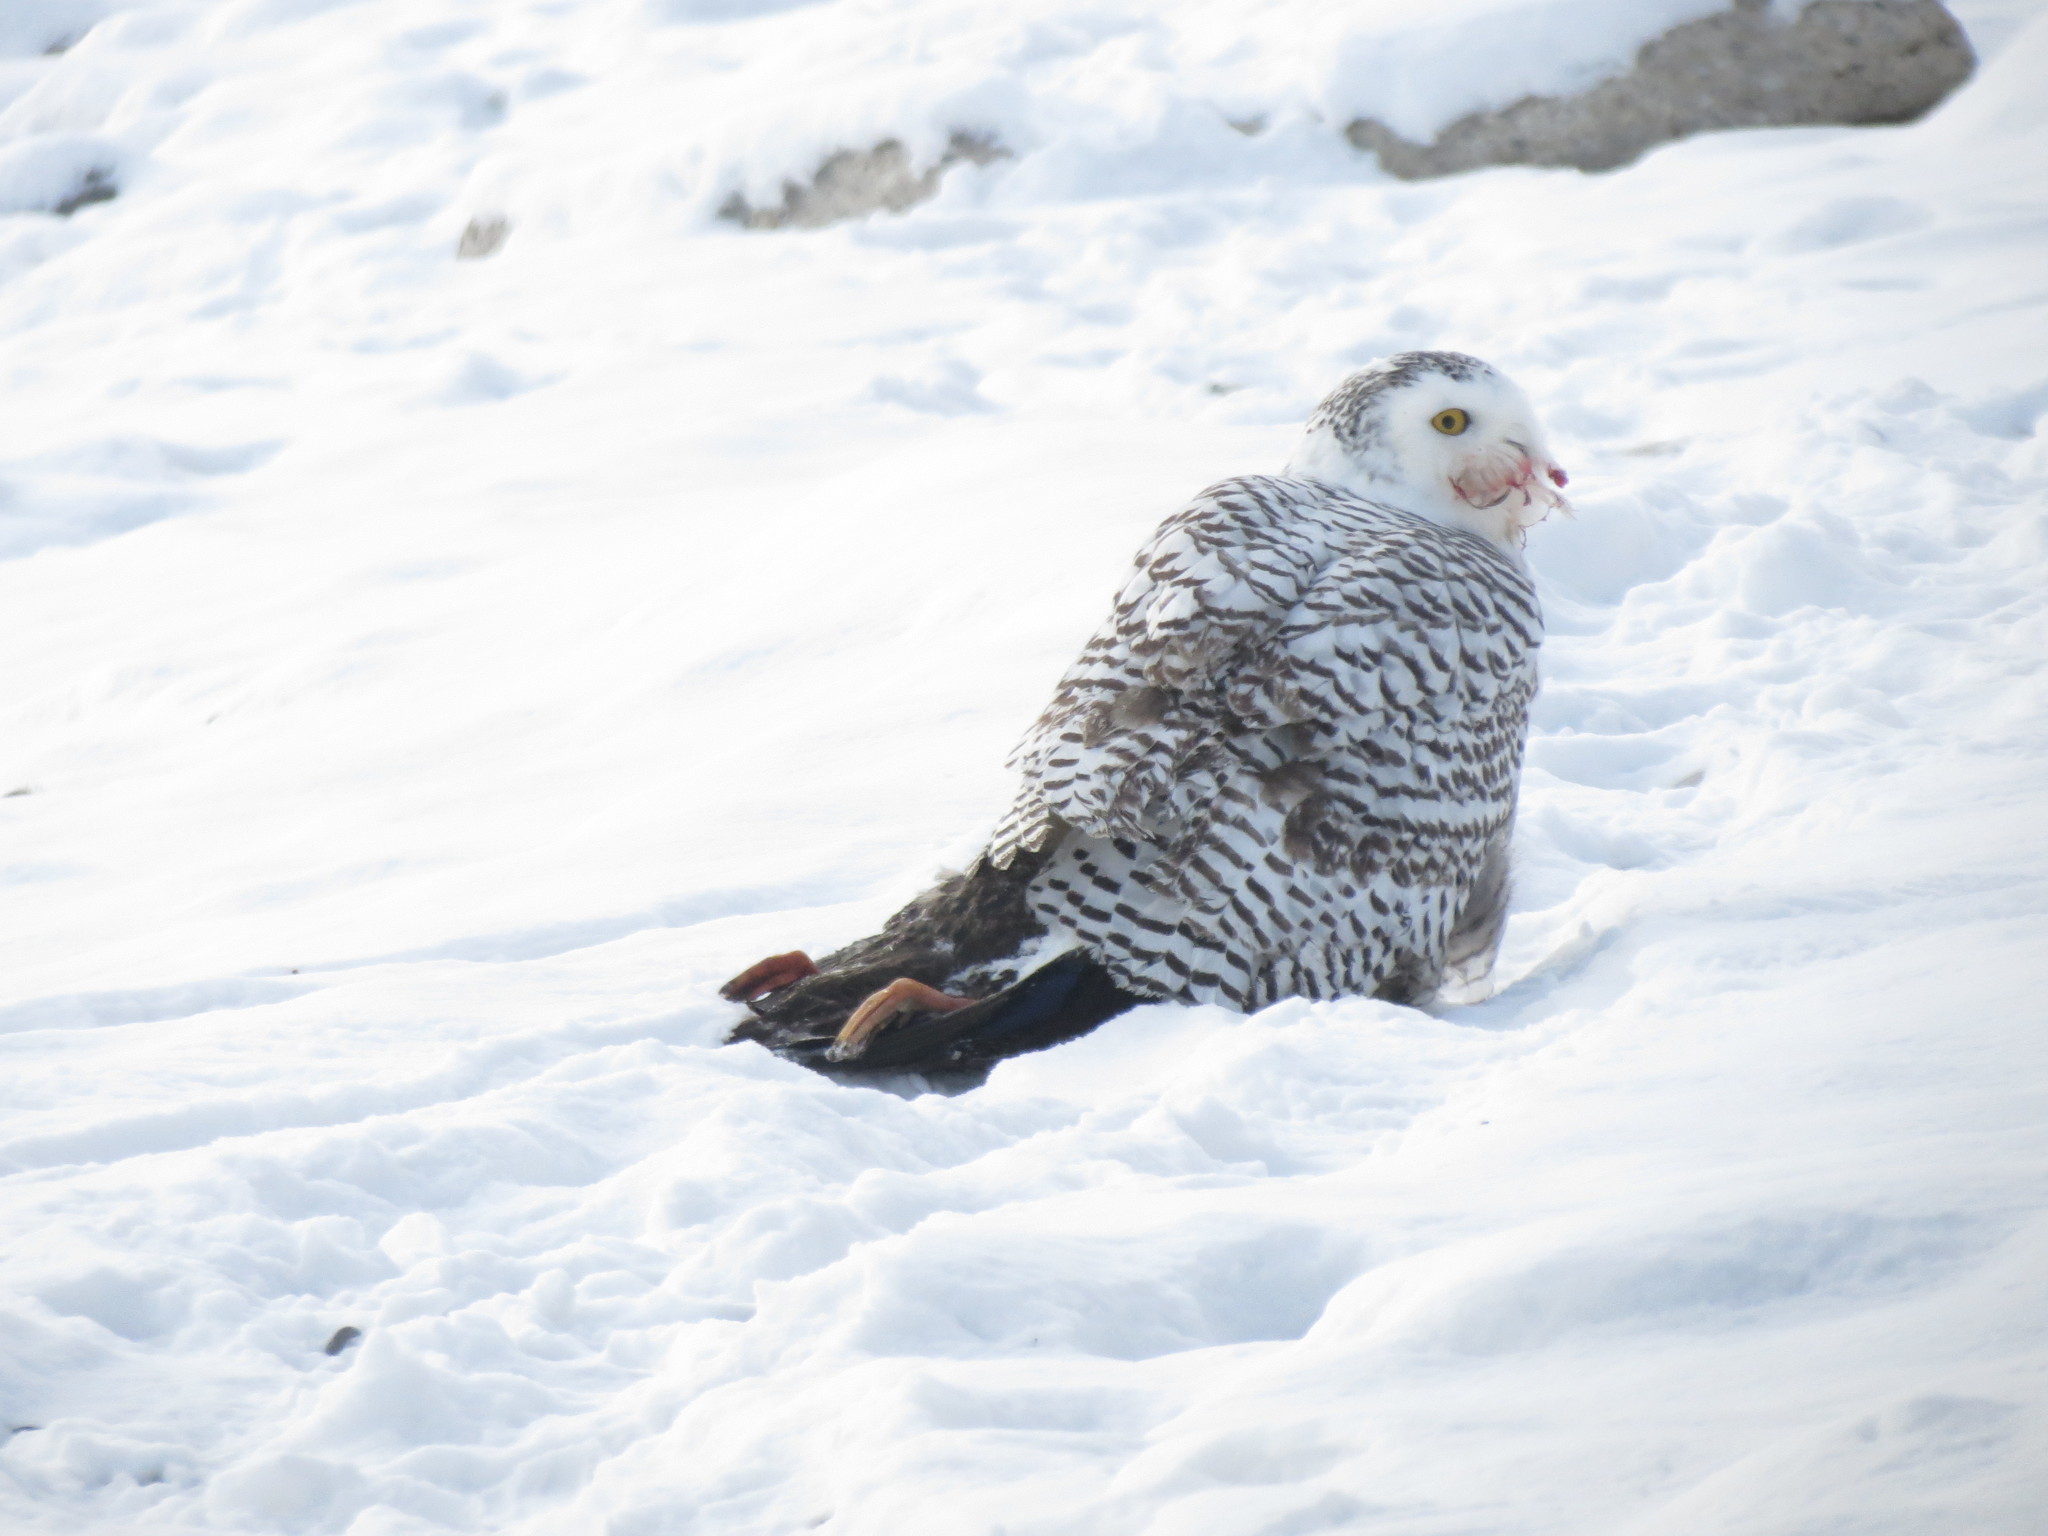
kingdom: Animalia
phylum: Chordata
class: Aves
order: Strigiformes
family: Strigidae
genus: Bubo
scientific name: Bubo scandiacus
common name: Snowy owl
